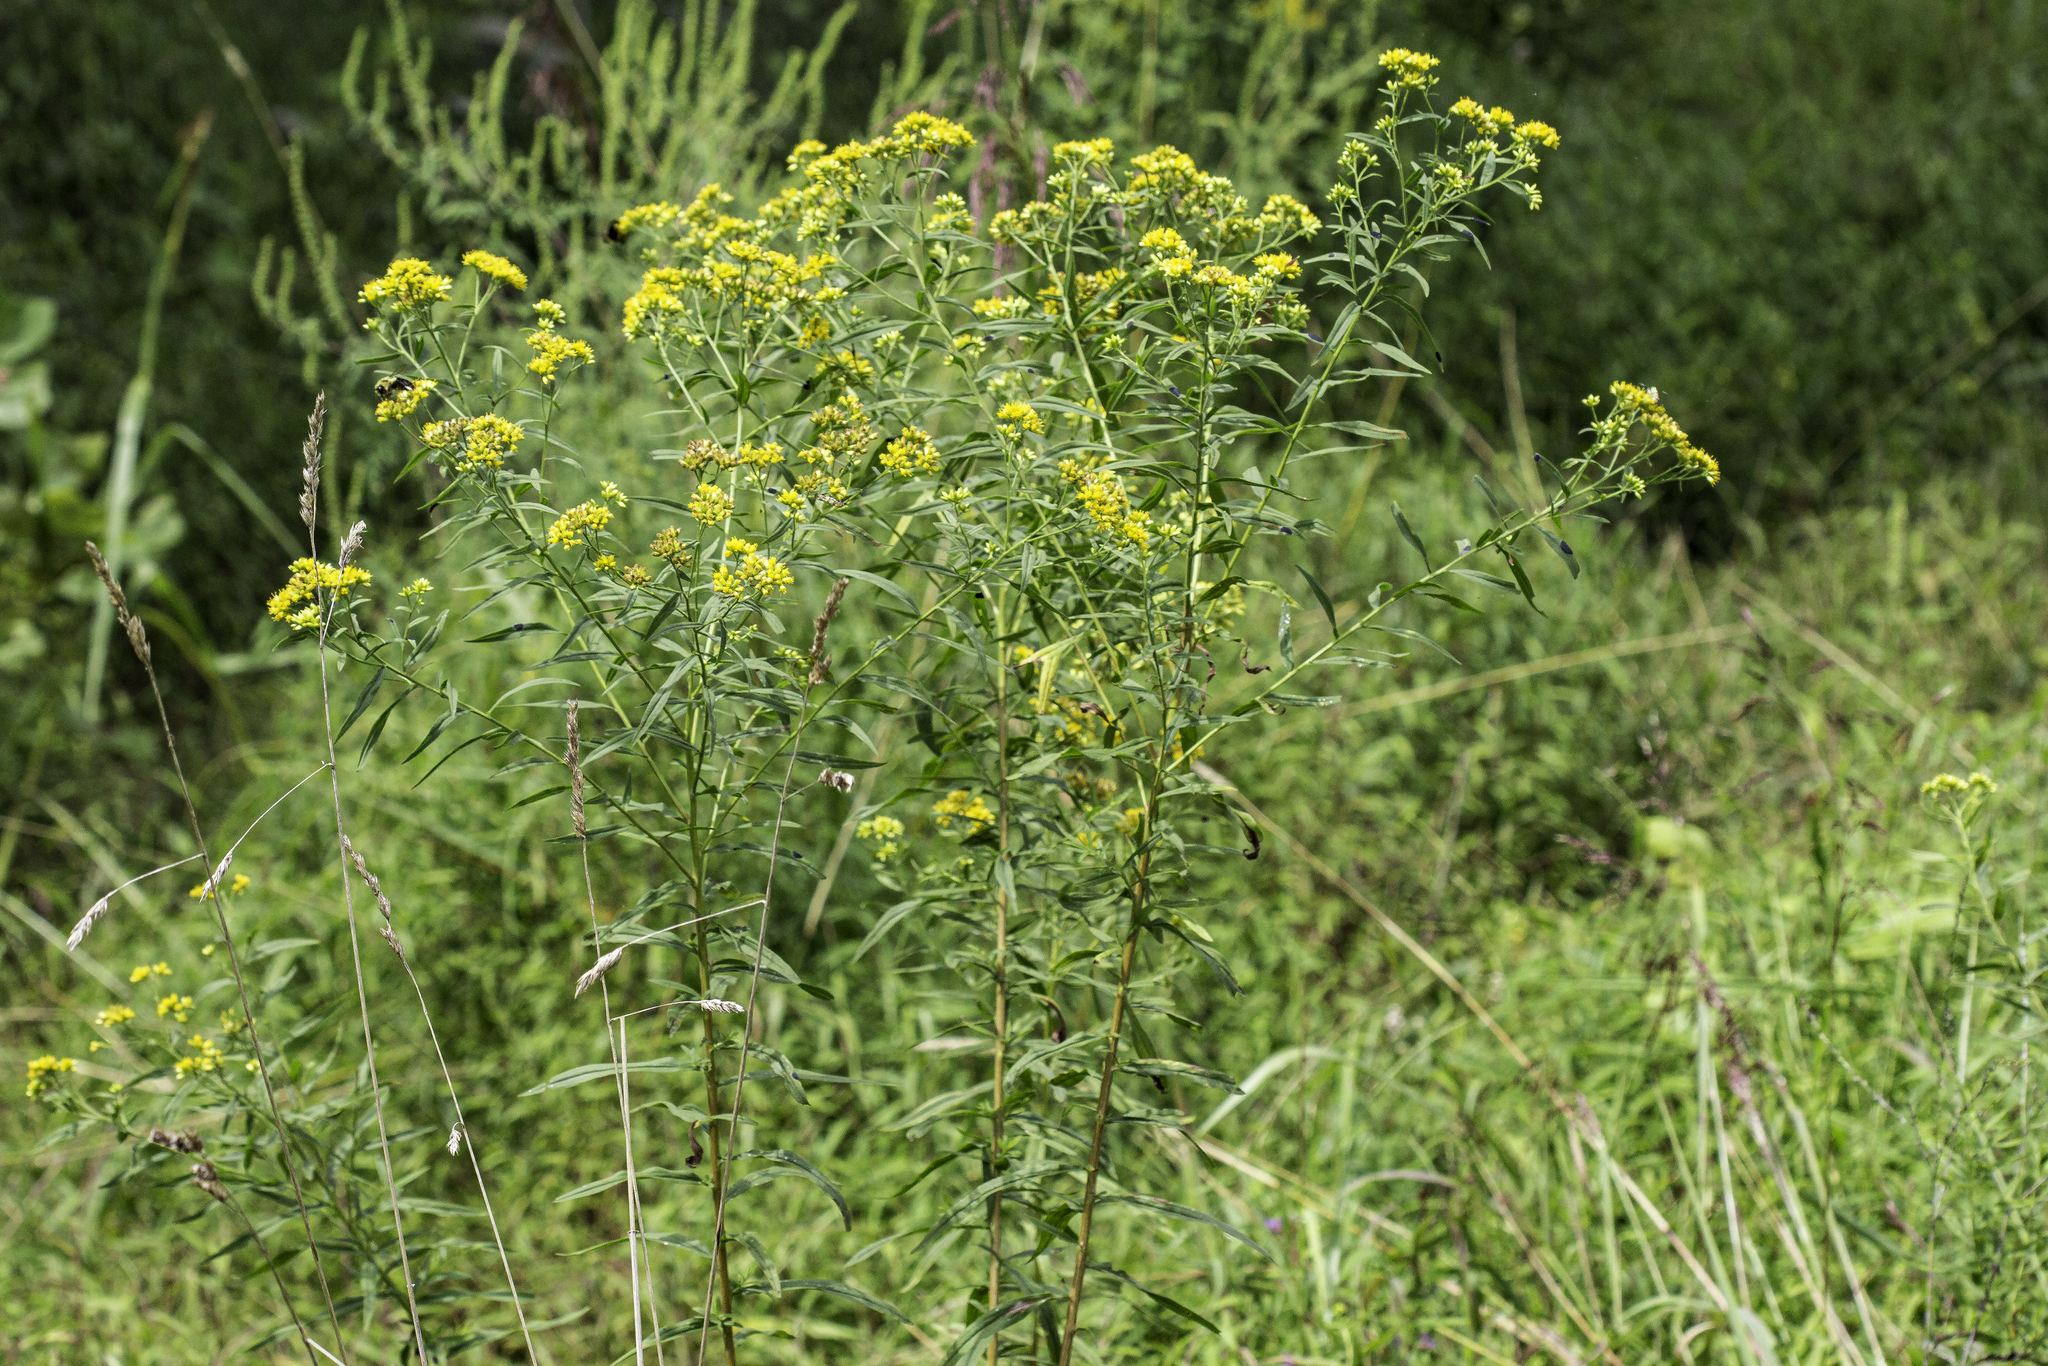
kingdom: Plantae
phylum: Tracheophyta
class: Magnoliopsida
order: Asterales
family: Asteraceae
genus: Euthamia
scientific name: Euthamia graminifolia
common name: Common goldentop
